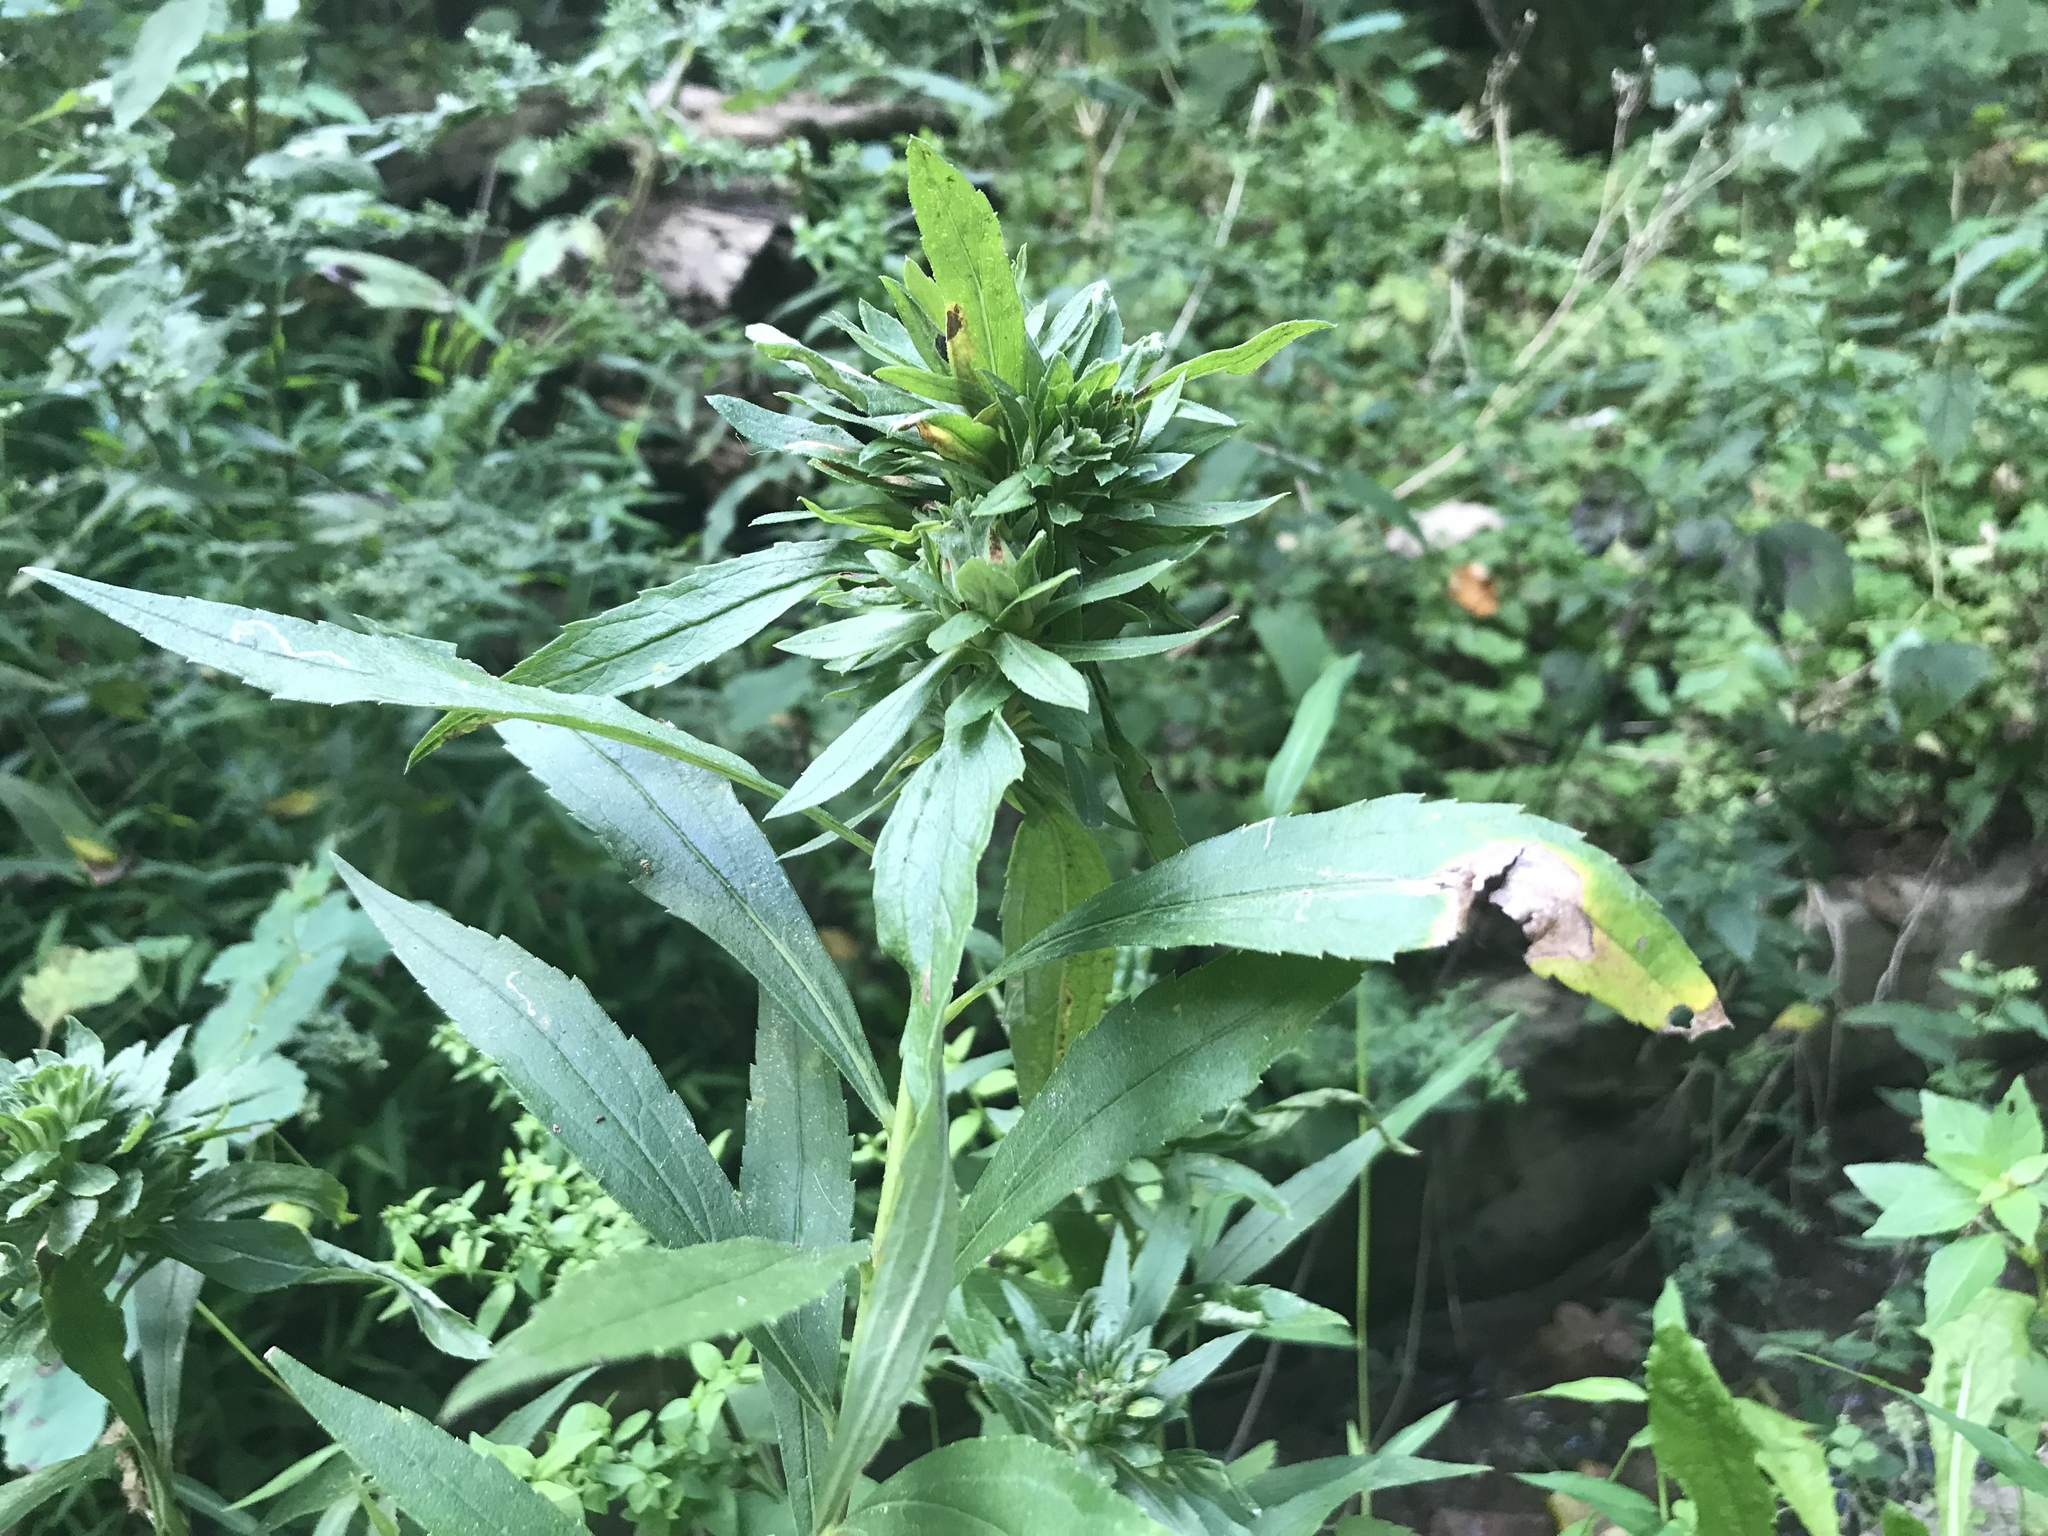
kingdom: Animalia
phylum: Arthropoda
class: Insecta
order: Diptera
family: Tephritidae
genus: Procecidochares
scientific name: Procecidochares atra
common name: Goldenrod brussels sprout gall fly
